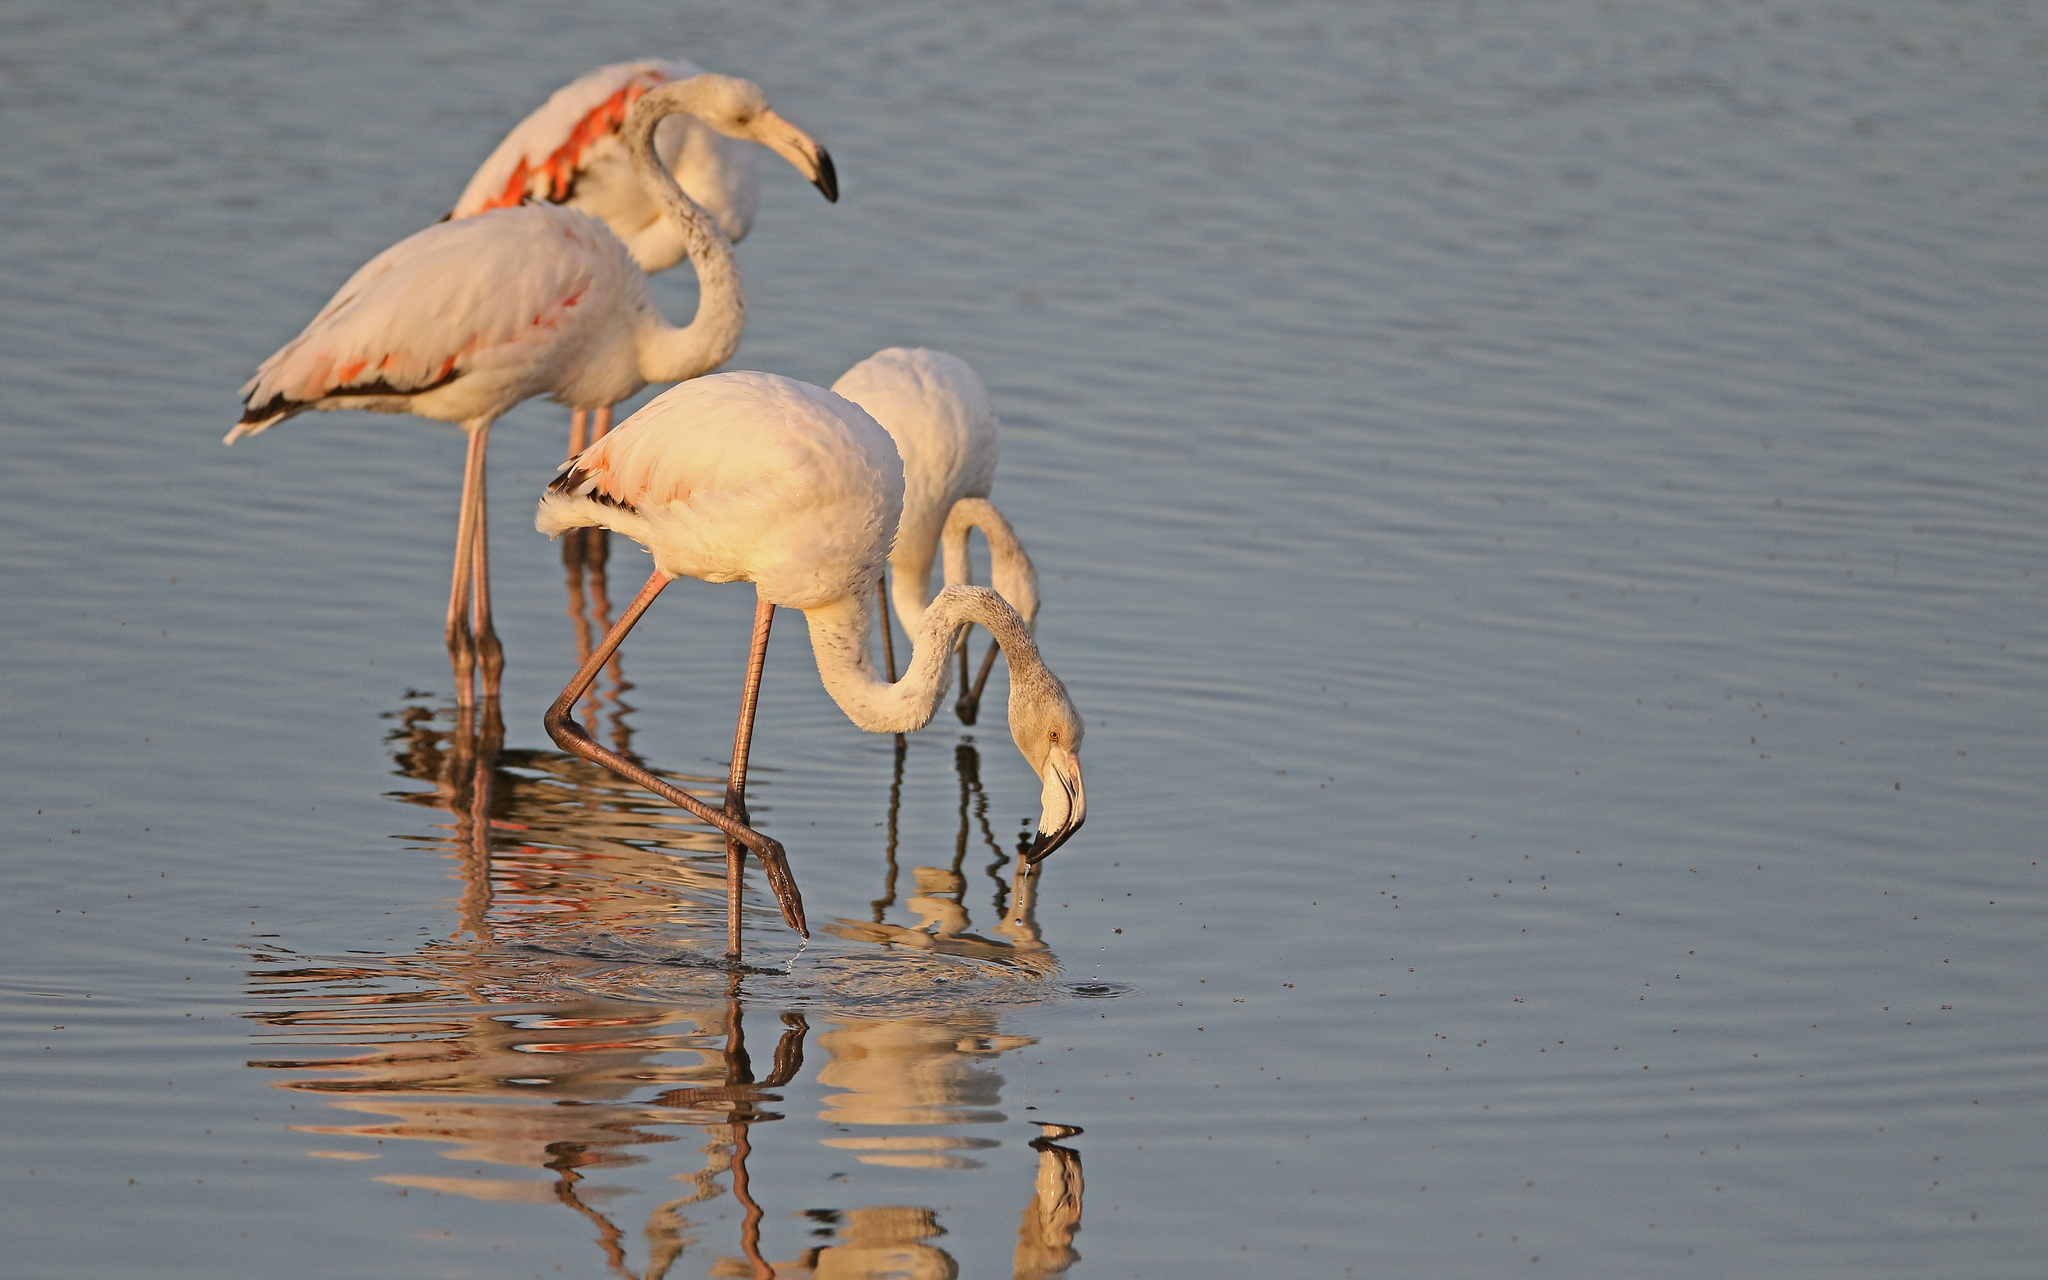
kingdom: Animalia
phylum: Chordata
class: Aves
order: Phoenicopteriformes
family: Phoenicopteridae
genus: Phoenicopterus
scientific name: Phoenicopterus roseus
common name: Greater flamingo
